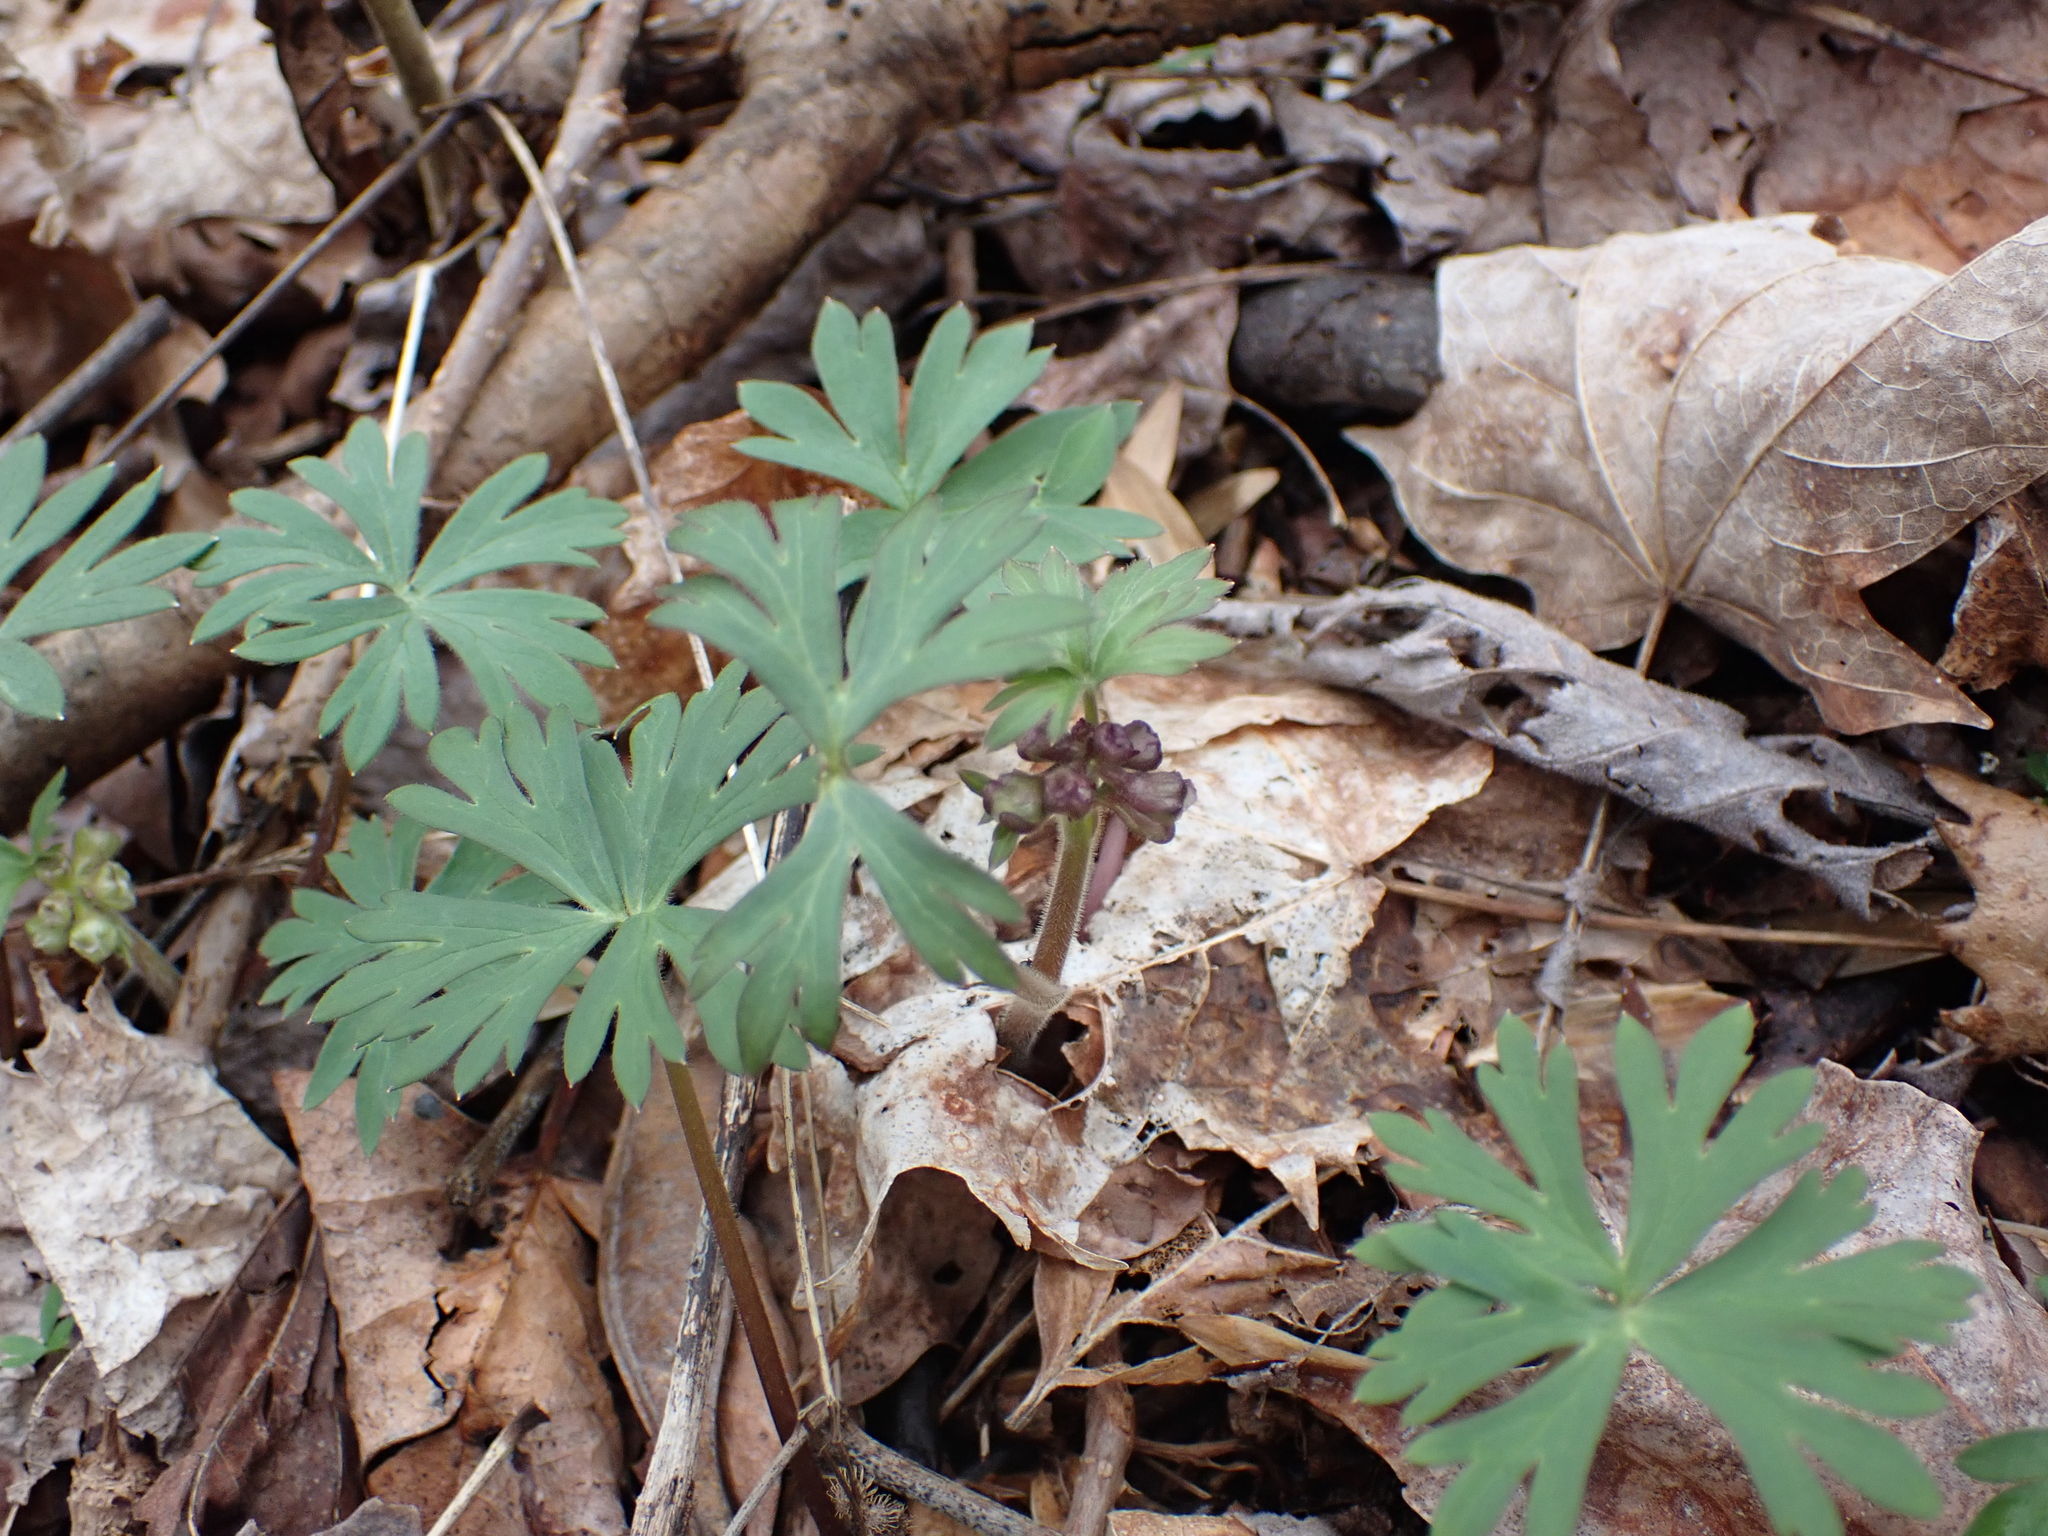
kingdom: Plantae
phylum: Tracheophyta
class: Magnoliopsida
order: Ranunculales
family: Ranunculaceae
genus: Delphinium
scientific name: Delphinium tricorne
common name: Dwarf larkspur
